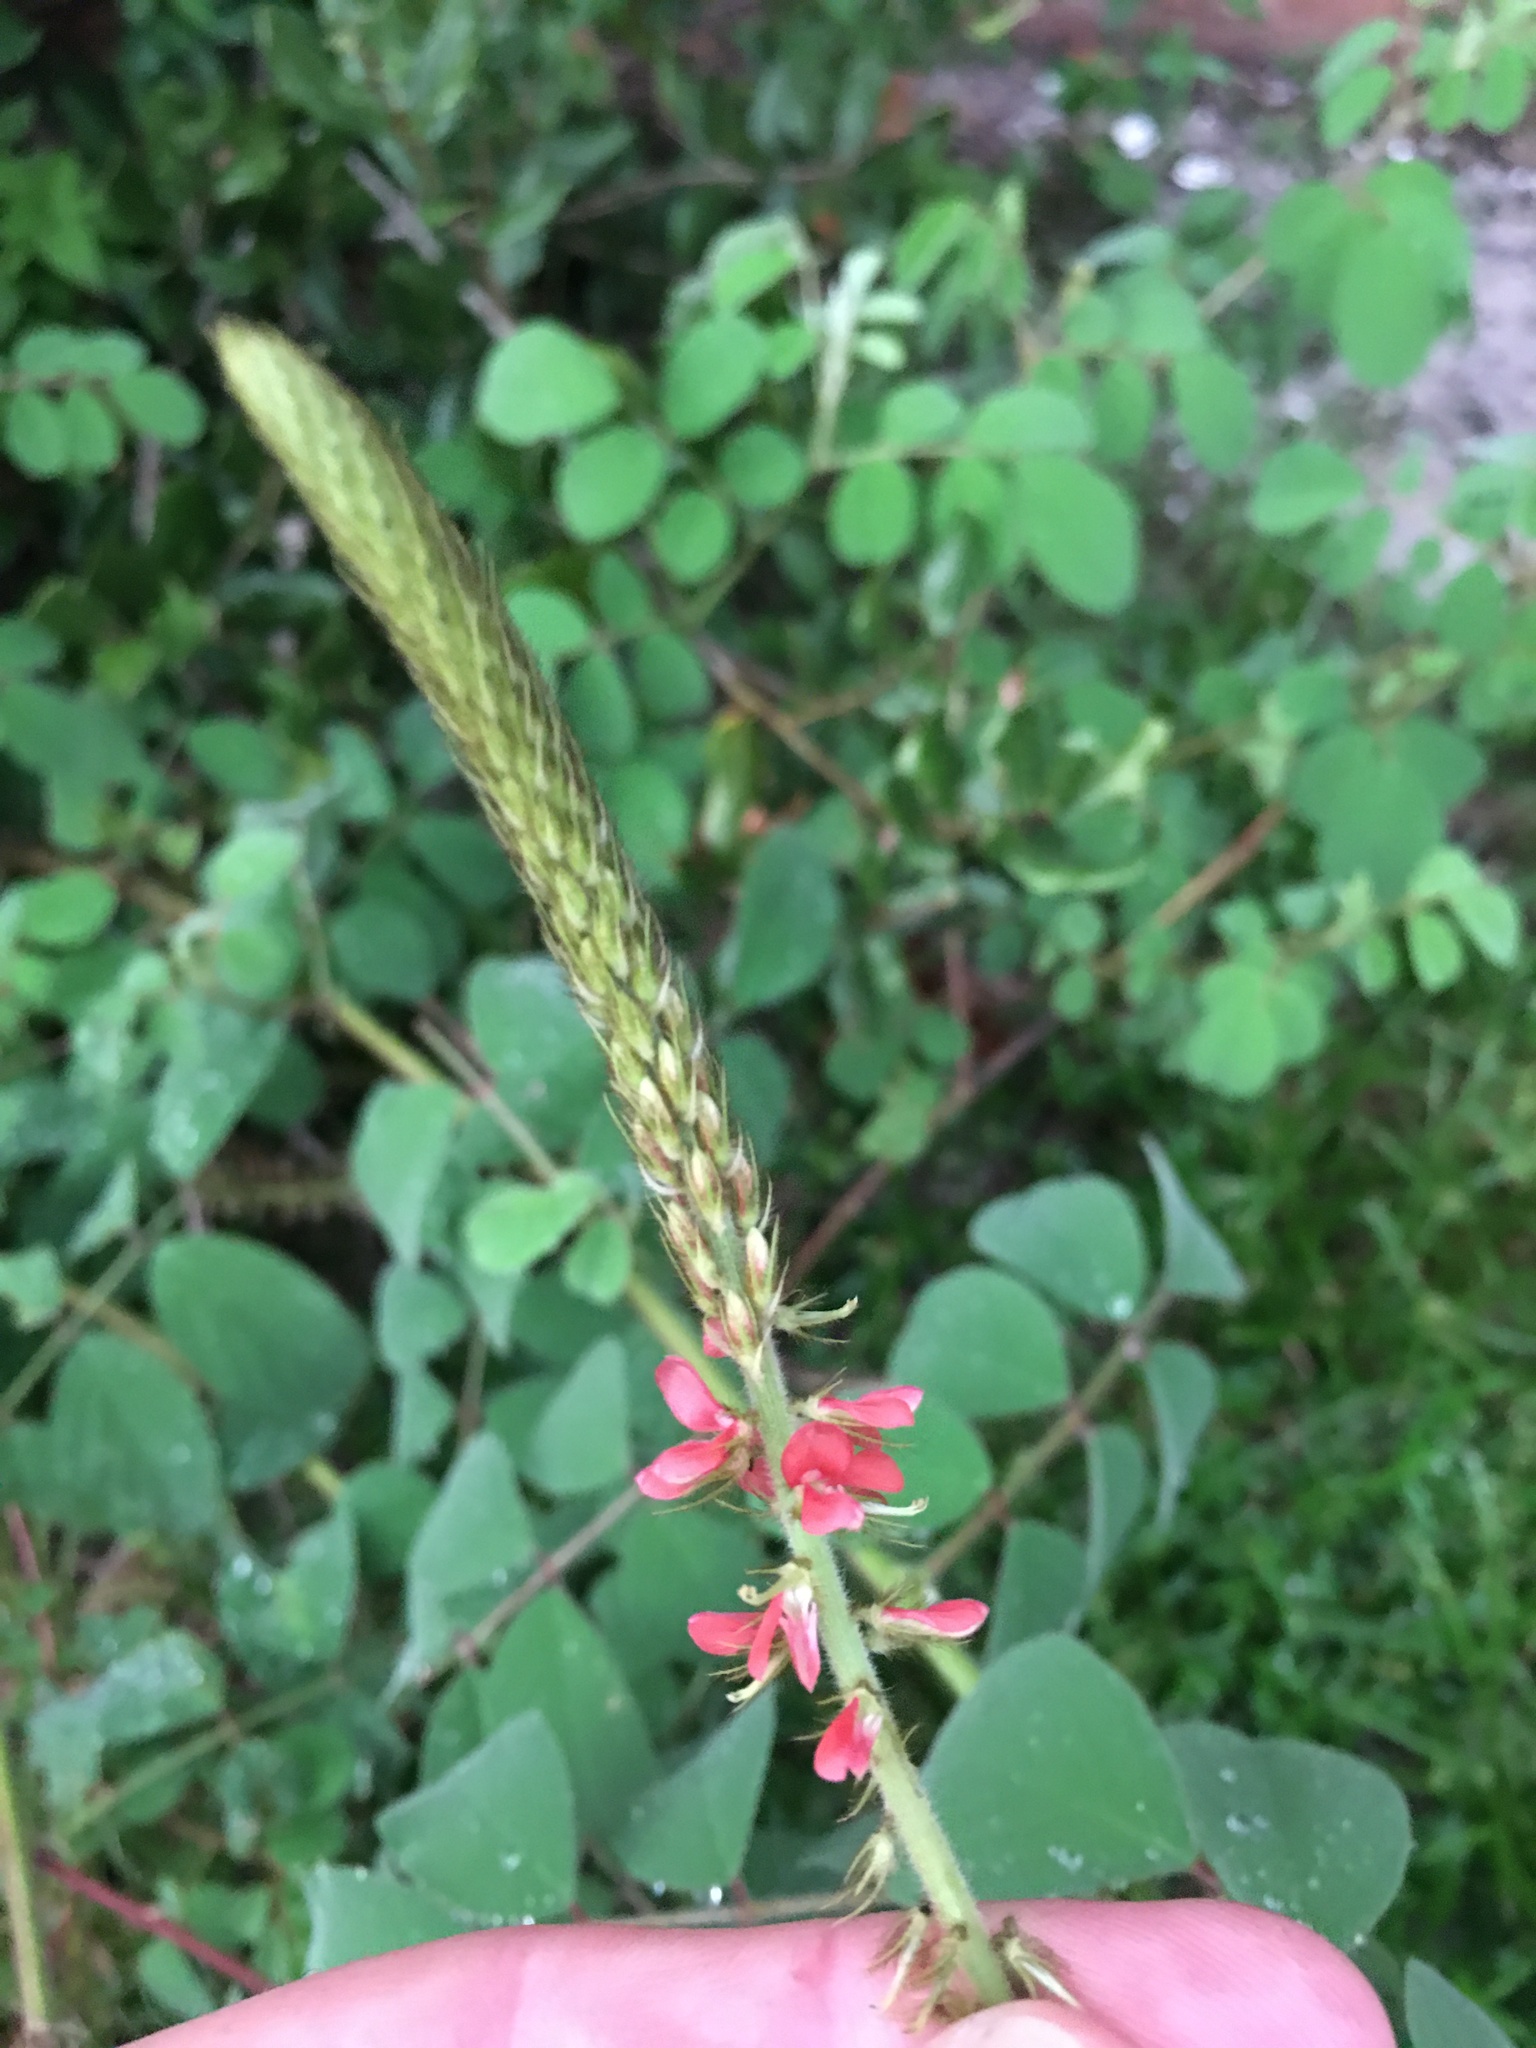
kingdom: Plantae
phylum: Tracheophyta
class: Magnoliopsida
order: Fabales
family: Fabaceae
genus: Indigofera
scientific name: Indigofera hirsuta
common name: Hairy indigo
